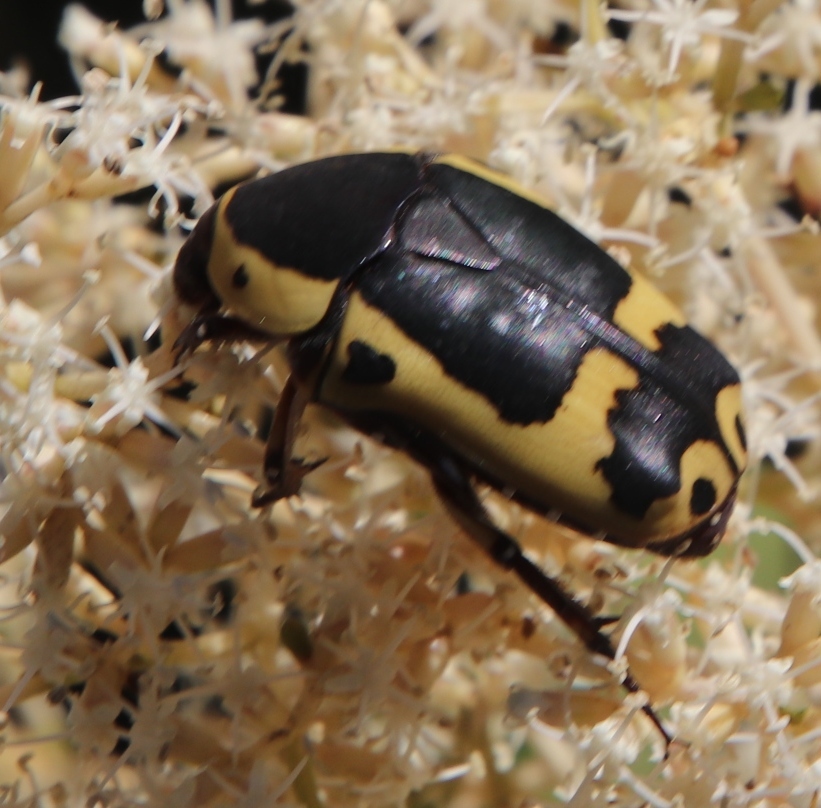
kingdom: Animalia
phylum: Arthropoda
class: Insecta
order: Coleoptera
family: Scarabaeidae
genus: Pachnoda
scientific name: Pachnoda sinuata
